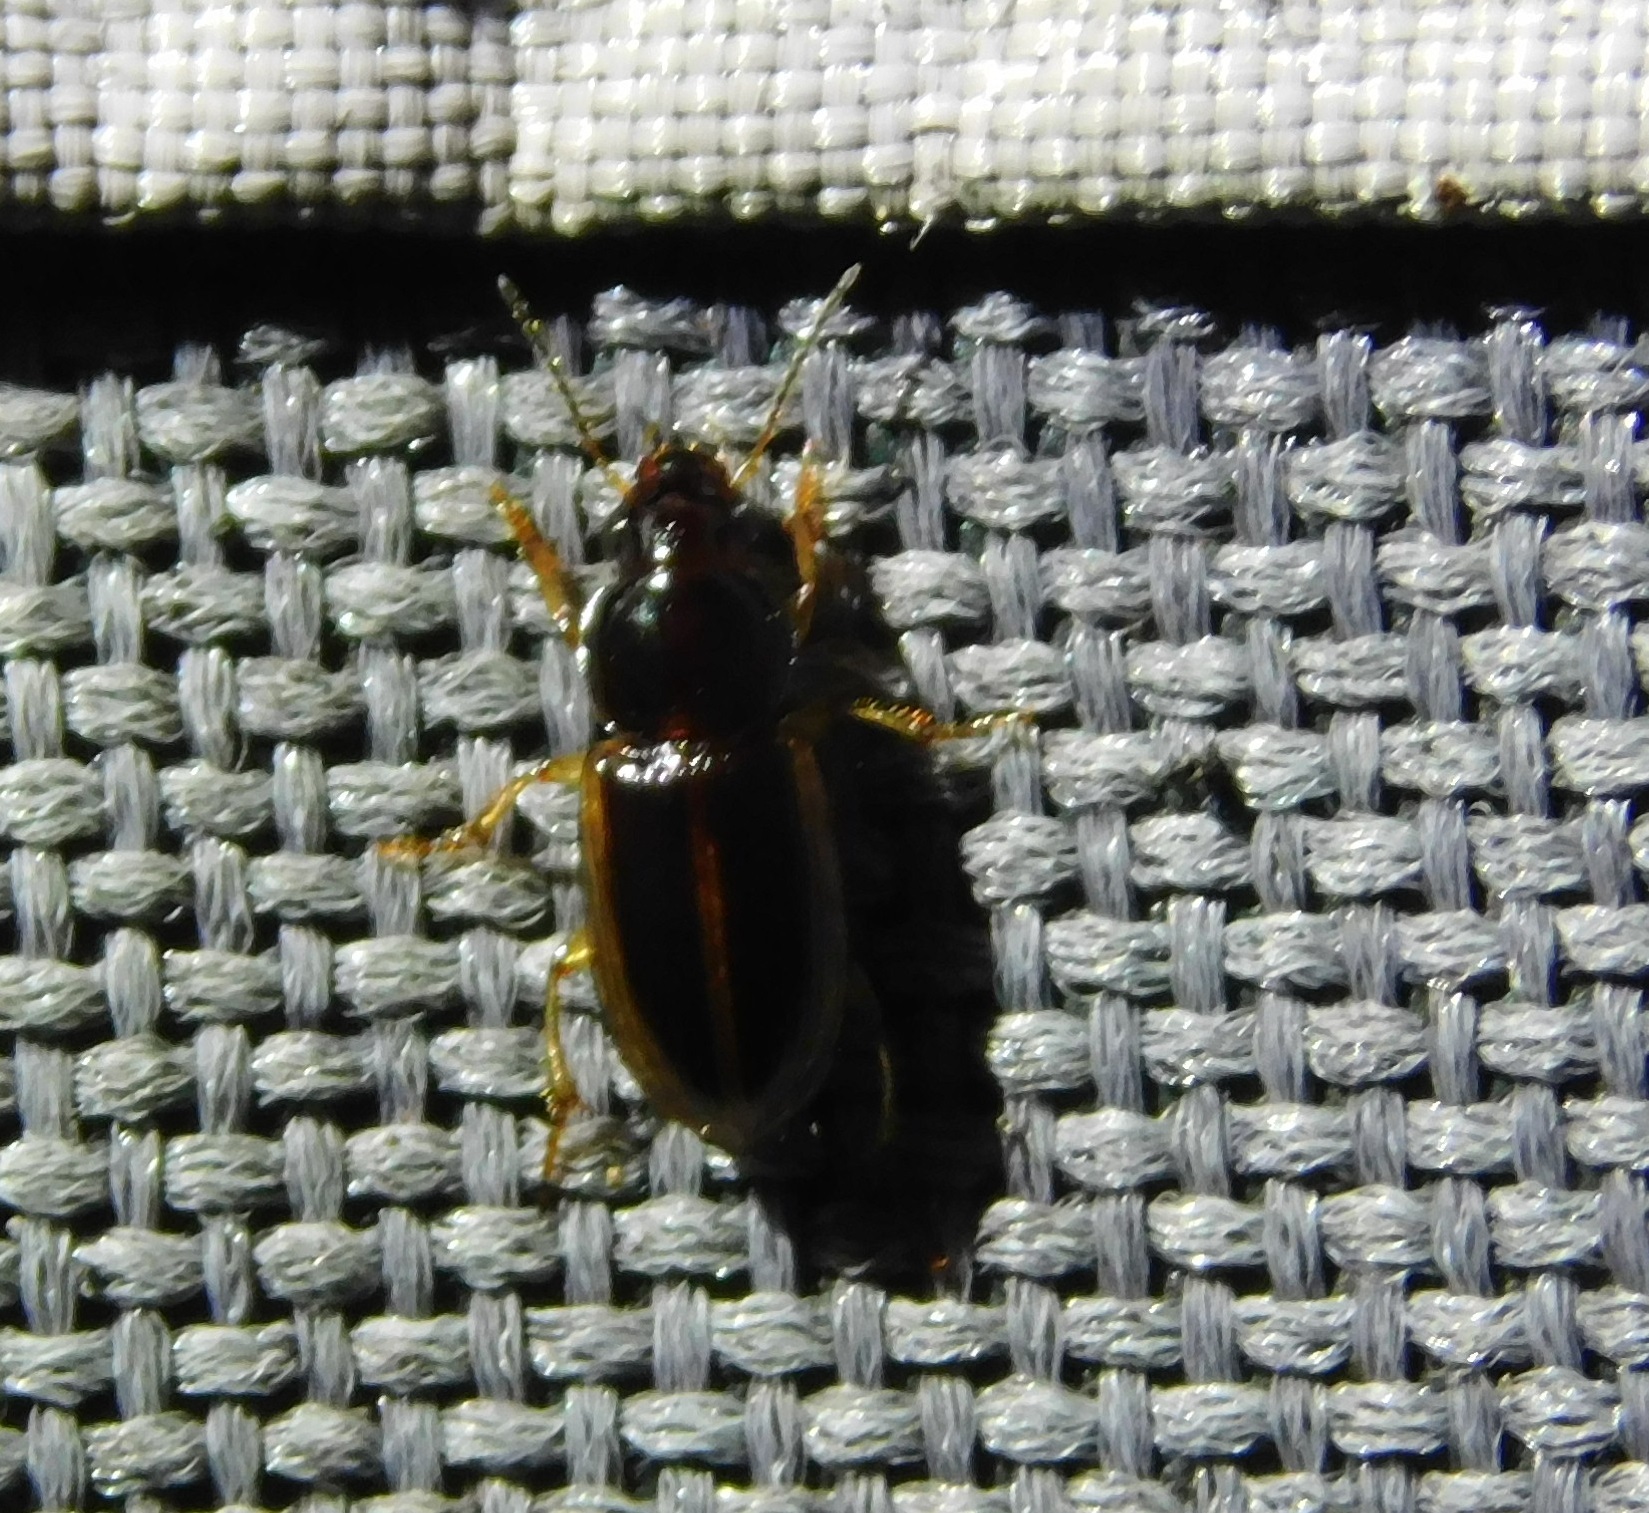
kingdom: Animalia
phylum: Arthropoda
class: Insecta
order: Coleoptera
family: Carabidae
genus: Stenolophus
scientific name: Stenolophus infuscatus
